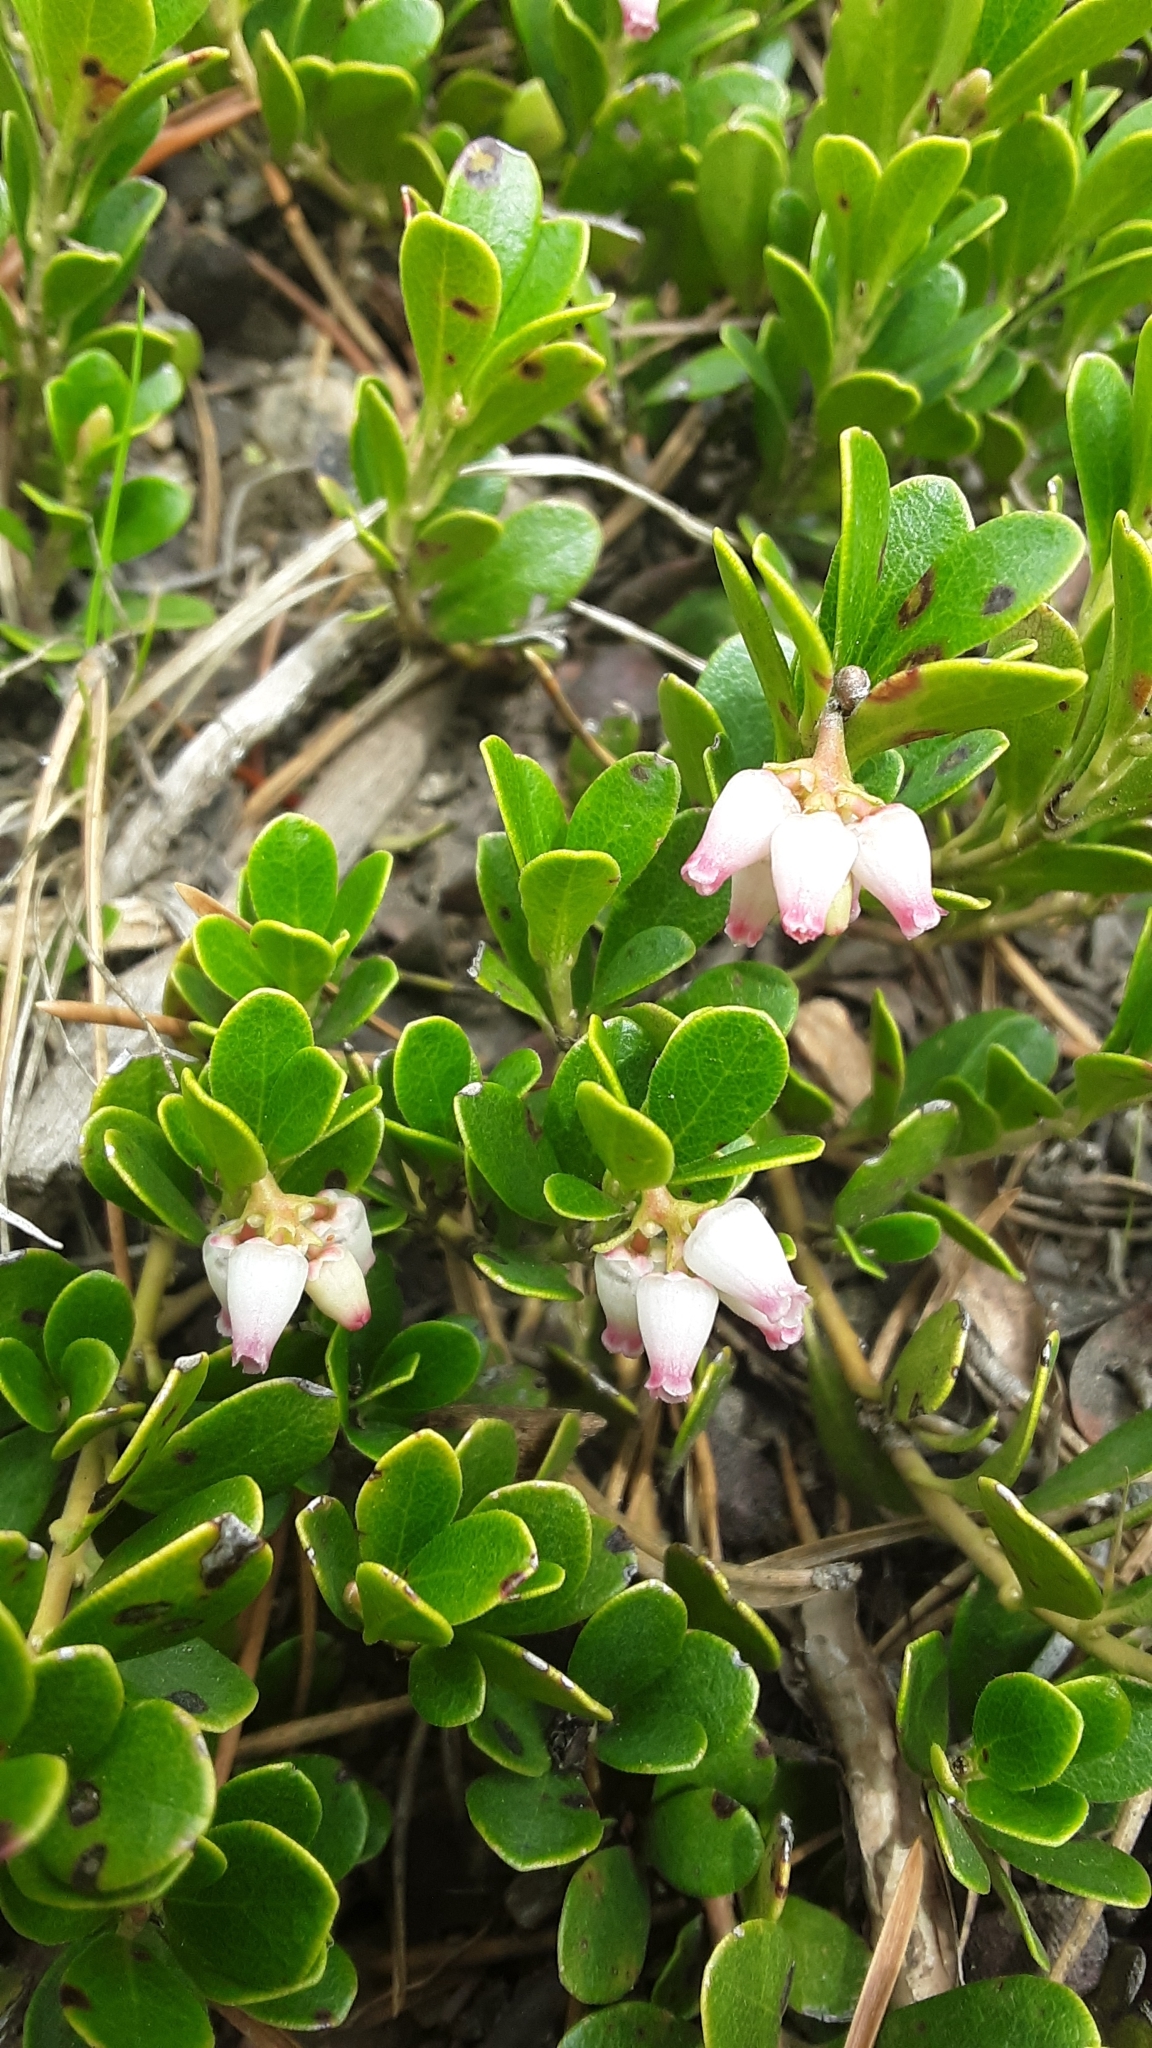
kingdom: Plantae
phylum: Tracheophyta
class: Magnoliopsida
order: Ericales
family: Ericaceae
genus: Arctostaphylos
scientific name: Arctostaphylos uva-ursi
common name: Bearberry
